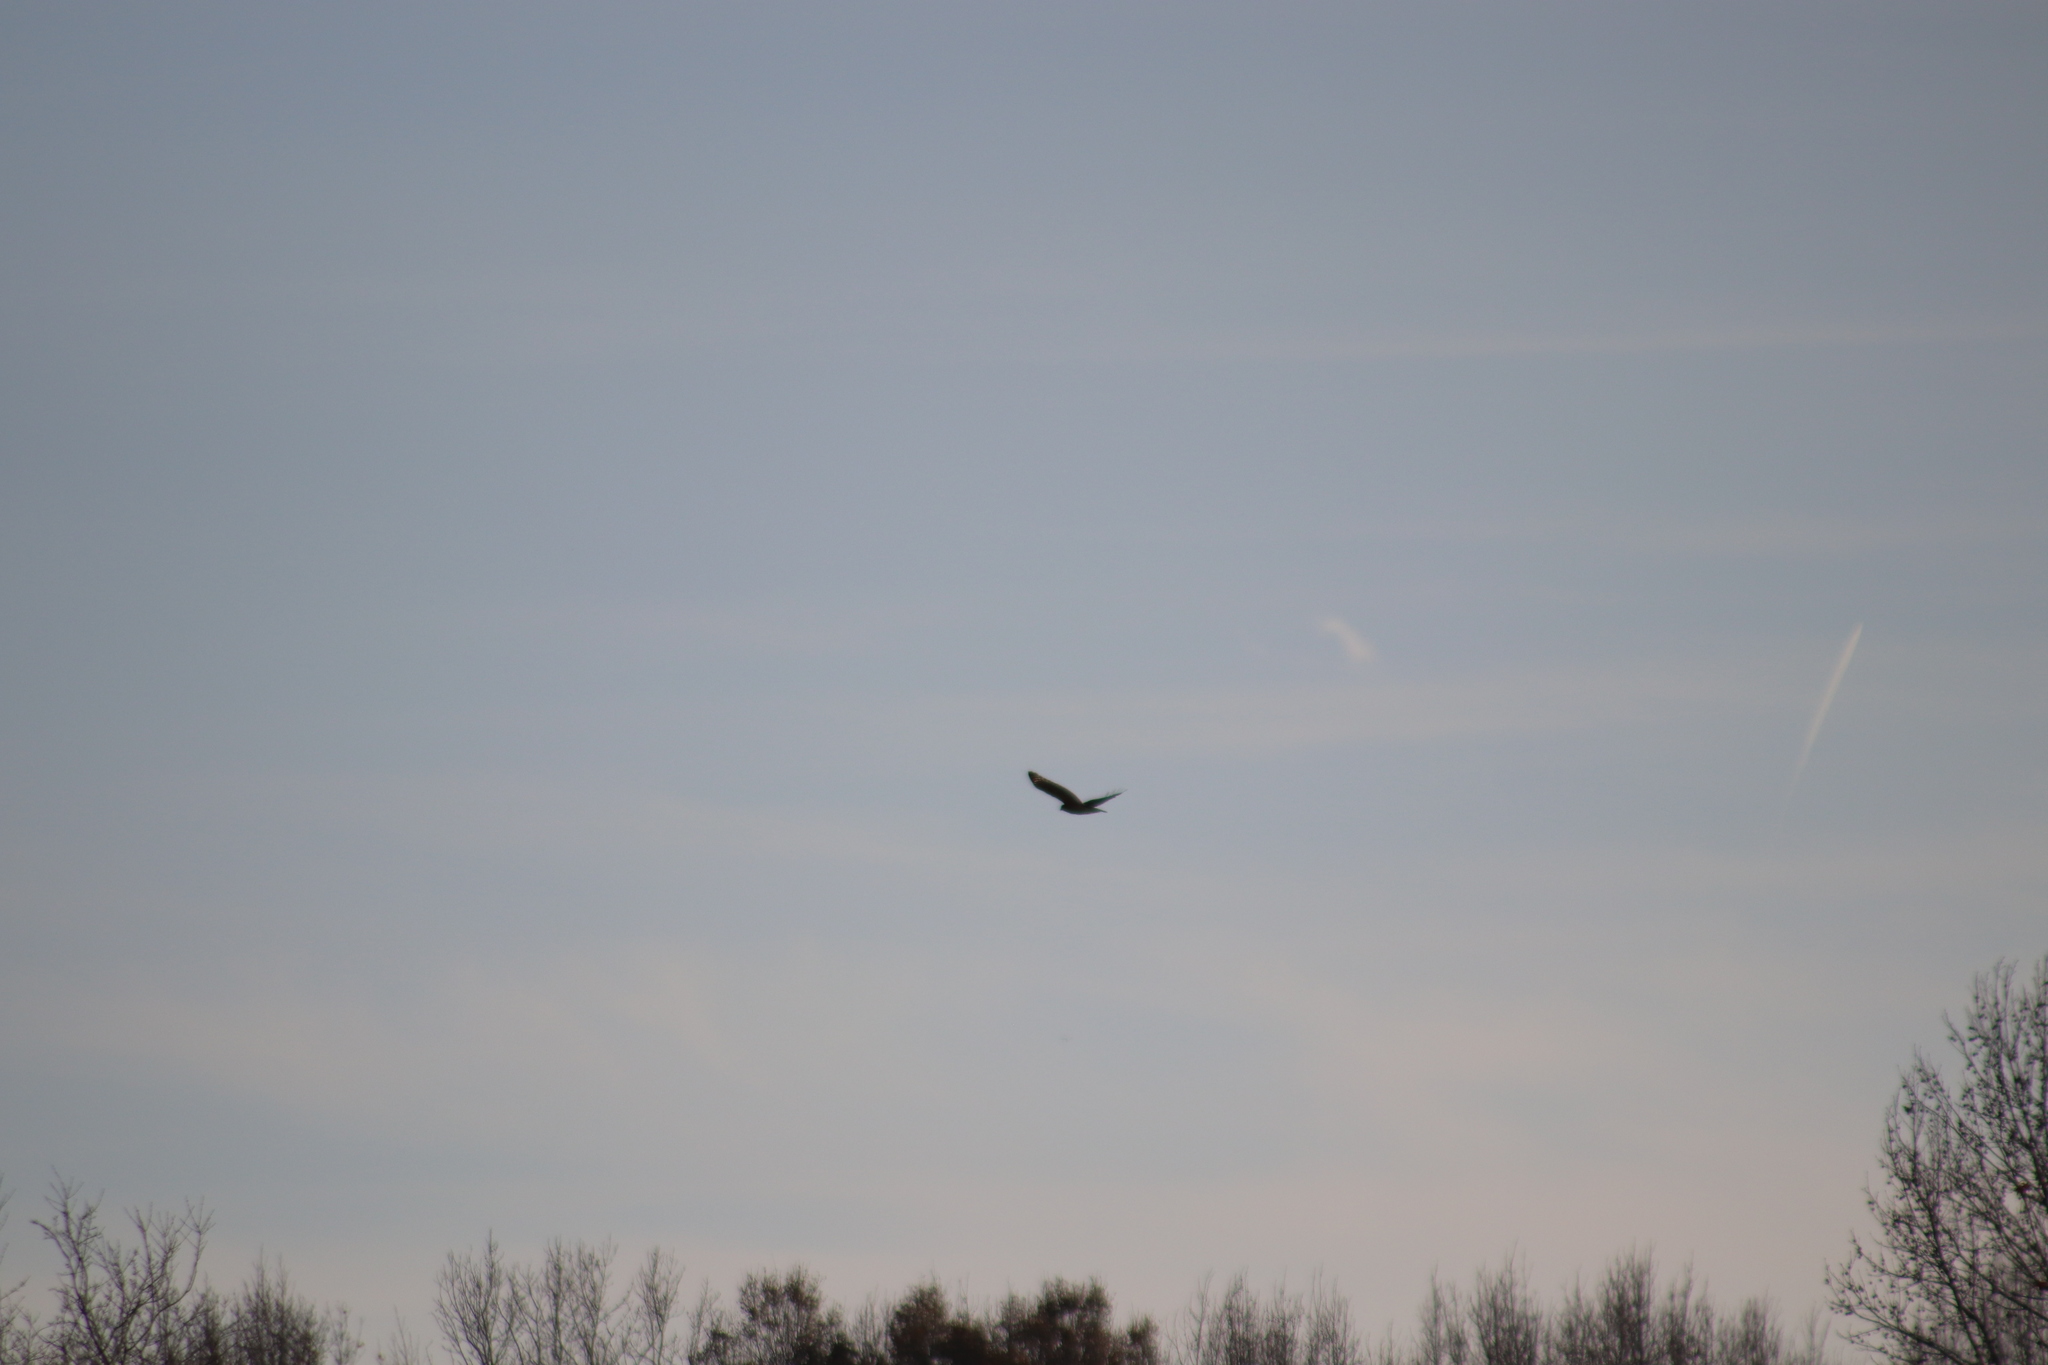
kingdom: Animalia
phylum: Chordata
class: Aves
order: Accipitriformes
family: Accipitridae
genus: Buteo
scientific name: Buteo lineatus
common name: Red-shouldered hawk
